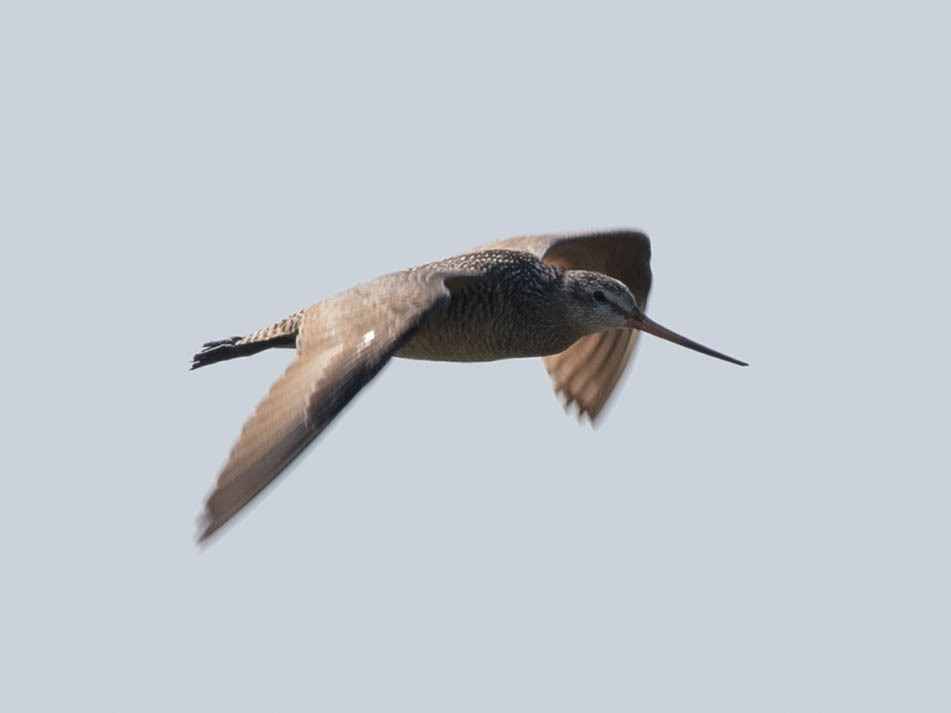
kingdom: Animalia
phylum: Chordata
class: Aves
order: Charadriiformes
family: Scolopacidae
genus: Limosa
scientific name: Limosa fedoa
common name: Marbled godwit
